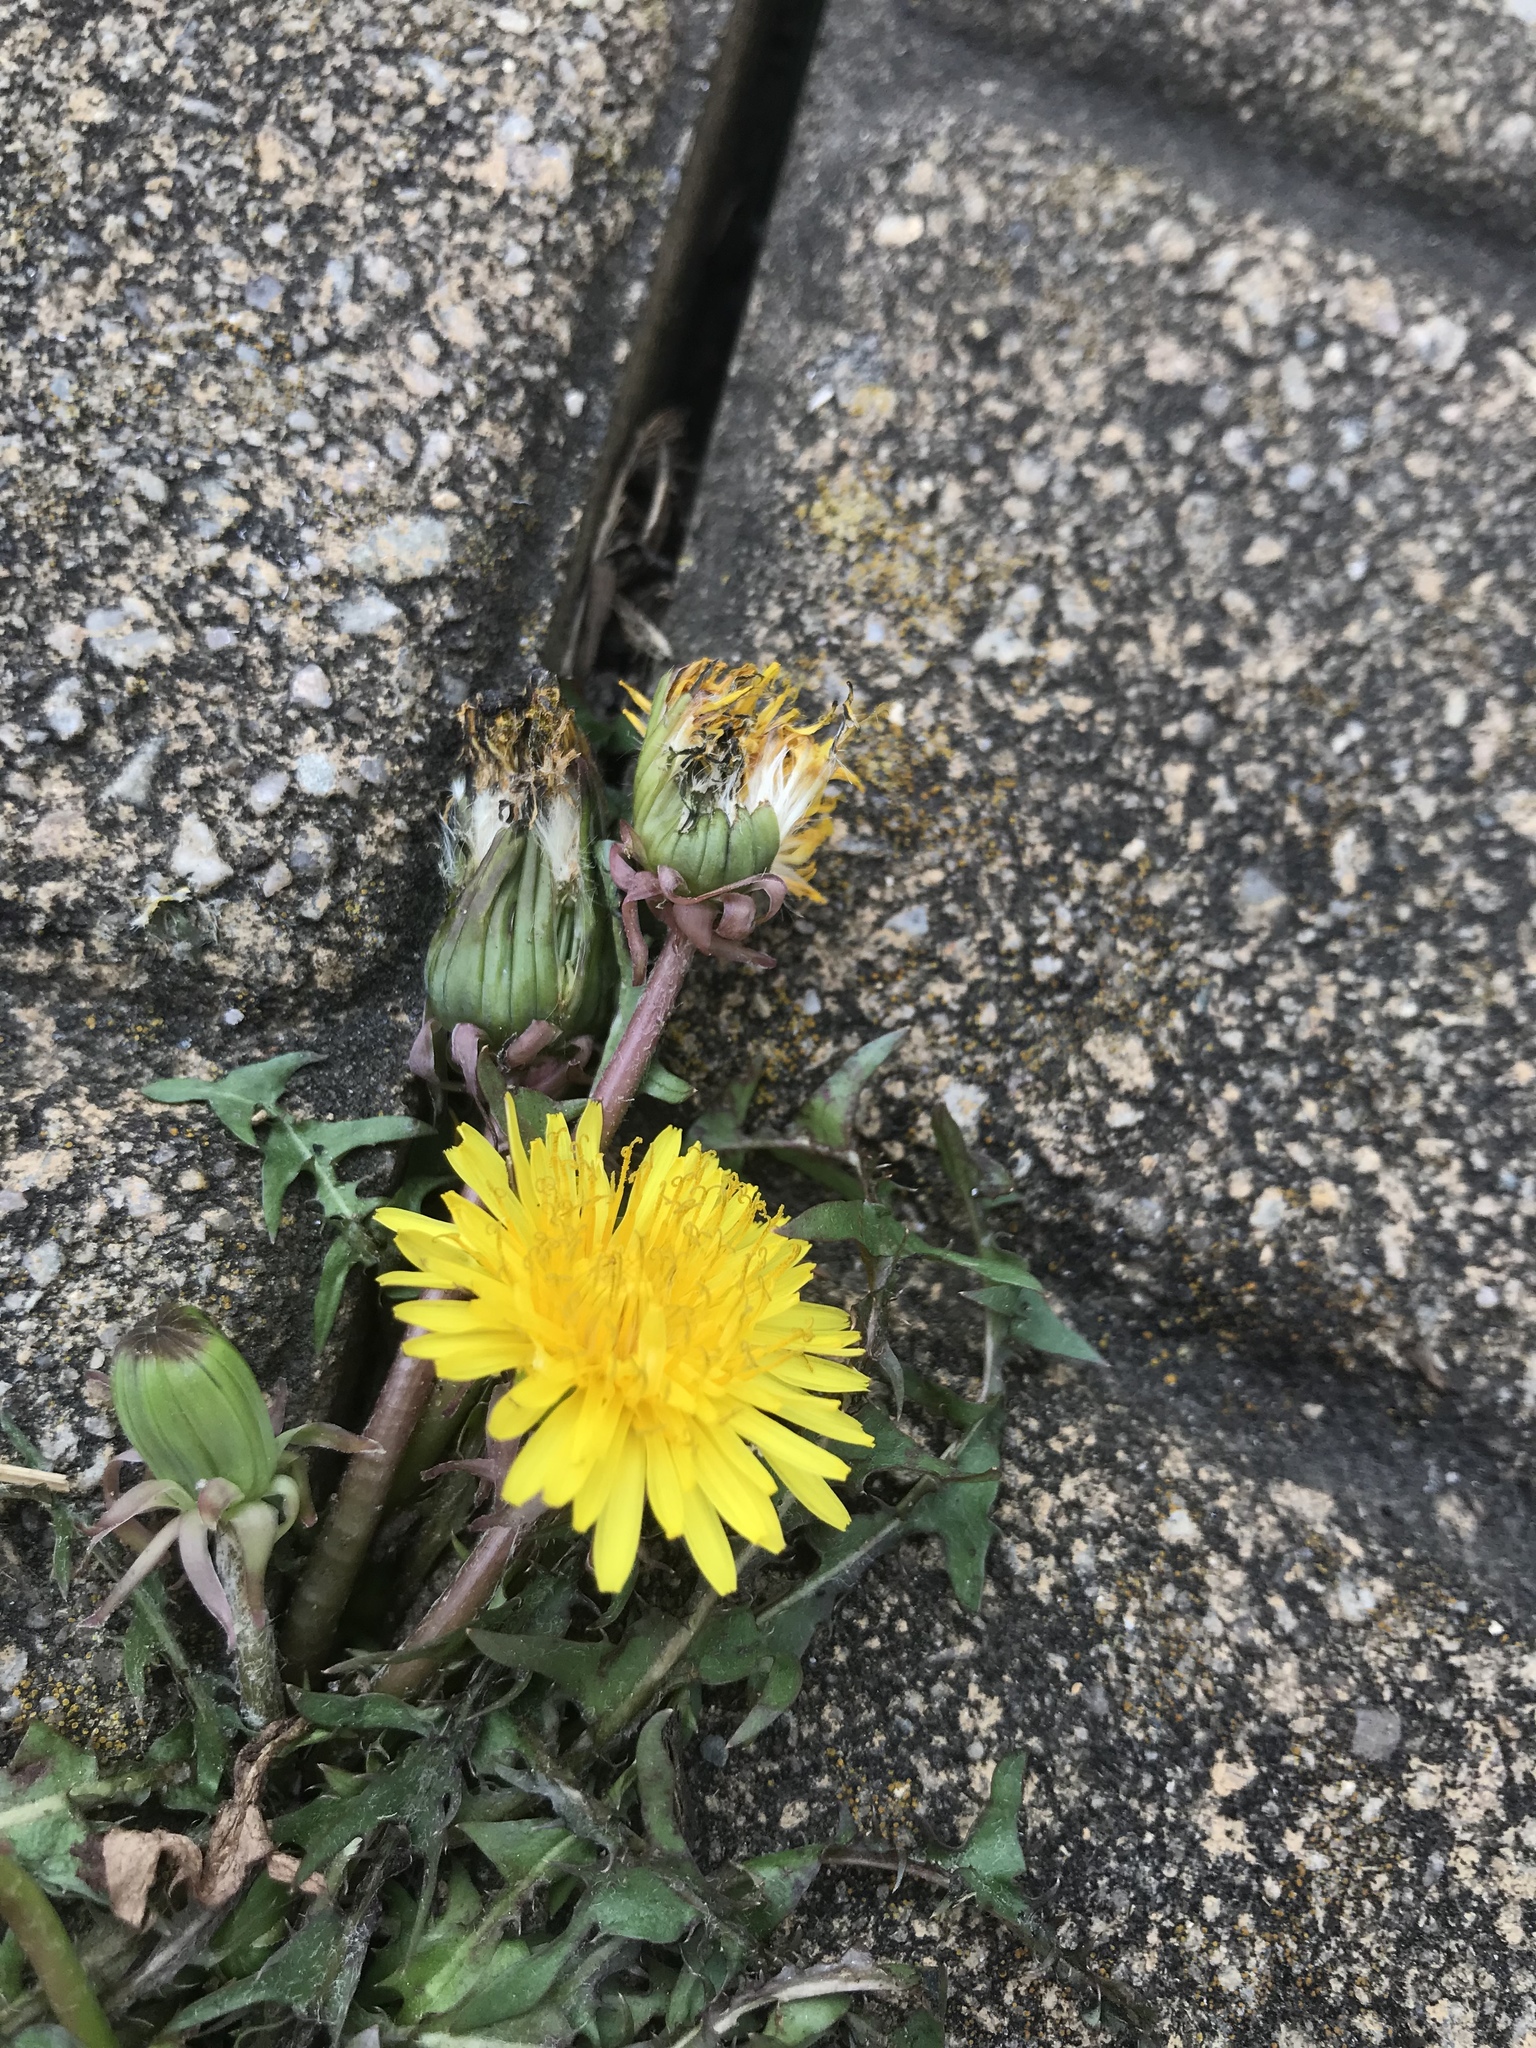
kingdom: Plantae
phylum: Tracheophyta
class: Magnoliopsida
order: Asterales
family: Asteraceae
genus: Taraxacum
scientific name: Taraxacum officinale
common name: Common dandelion
